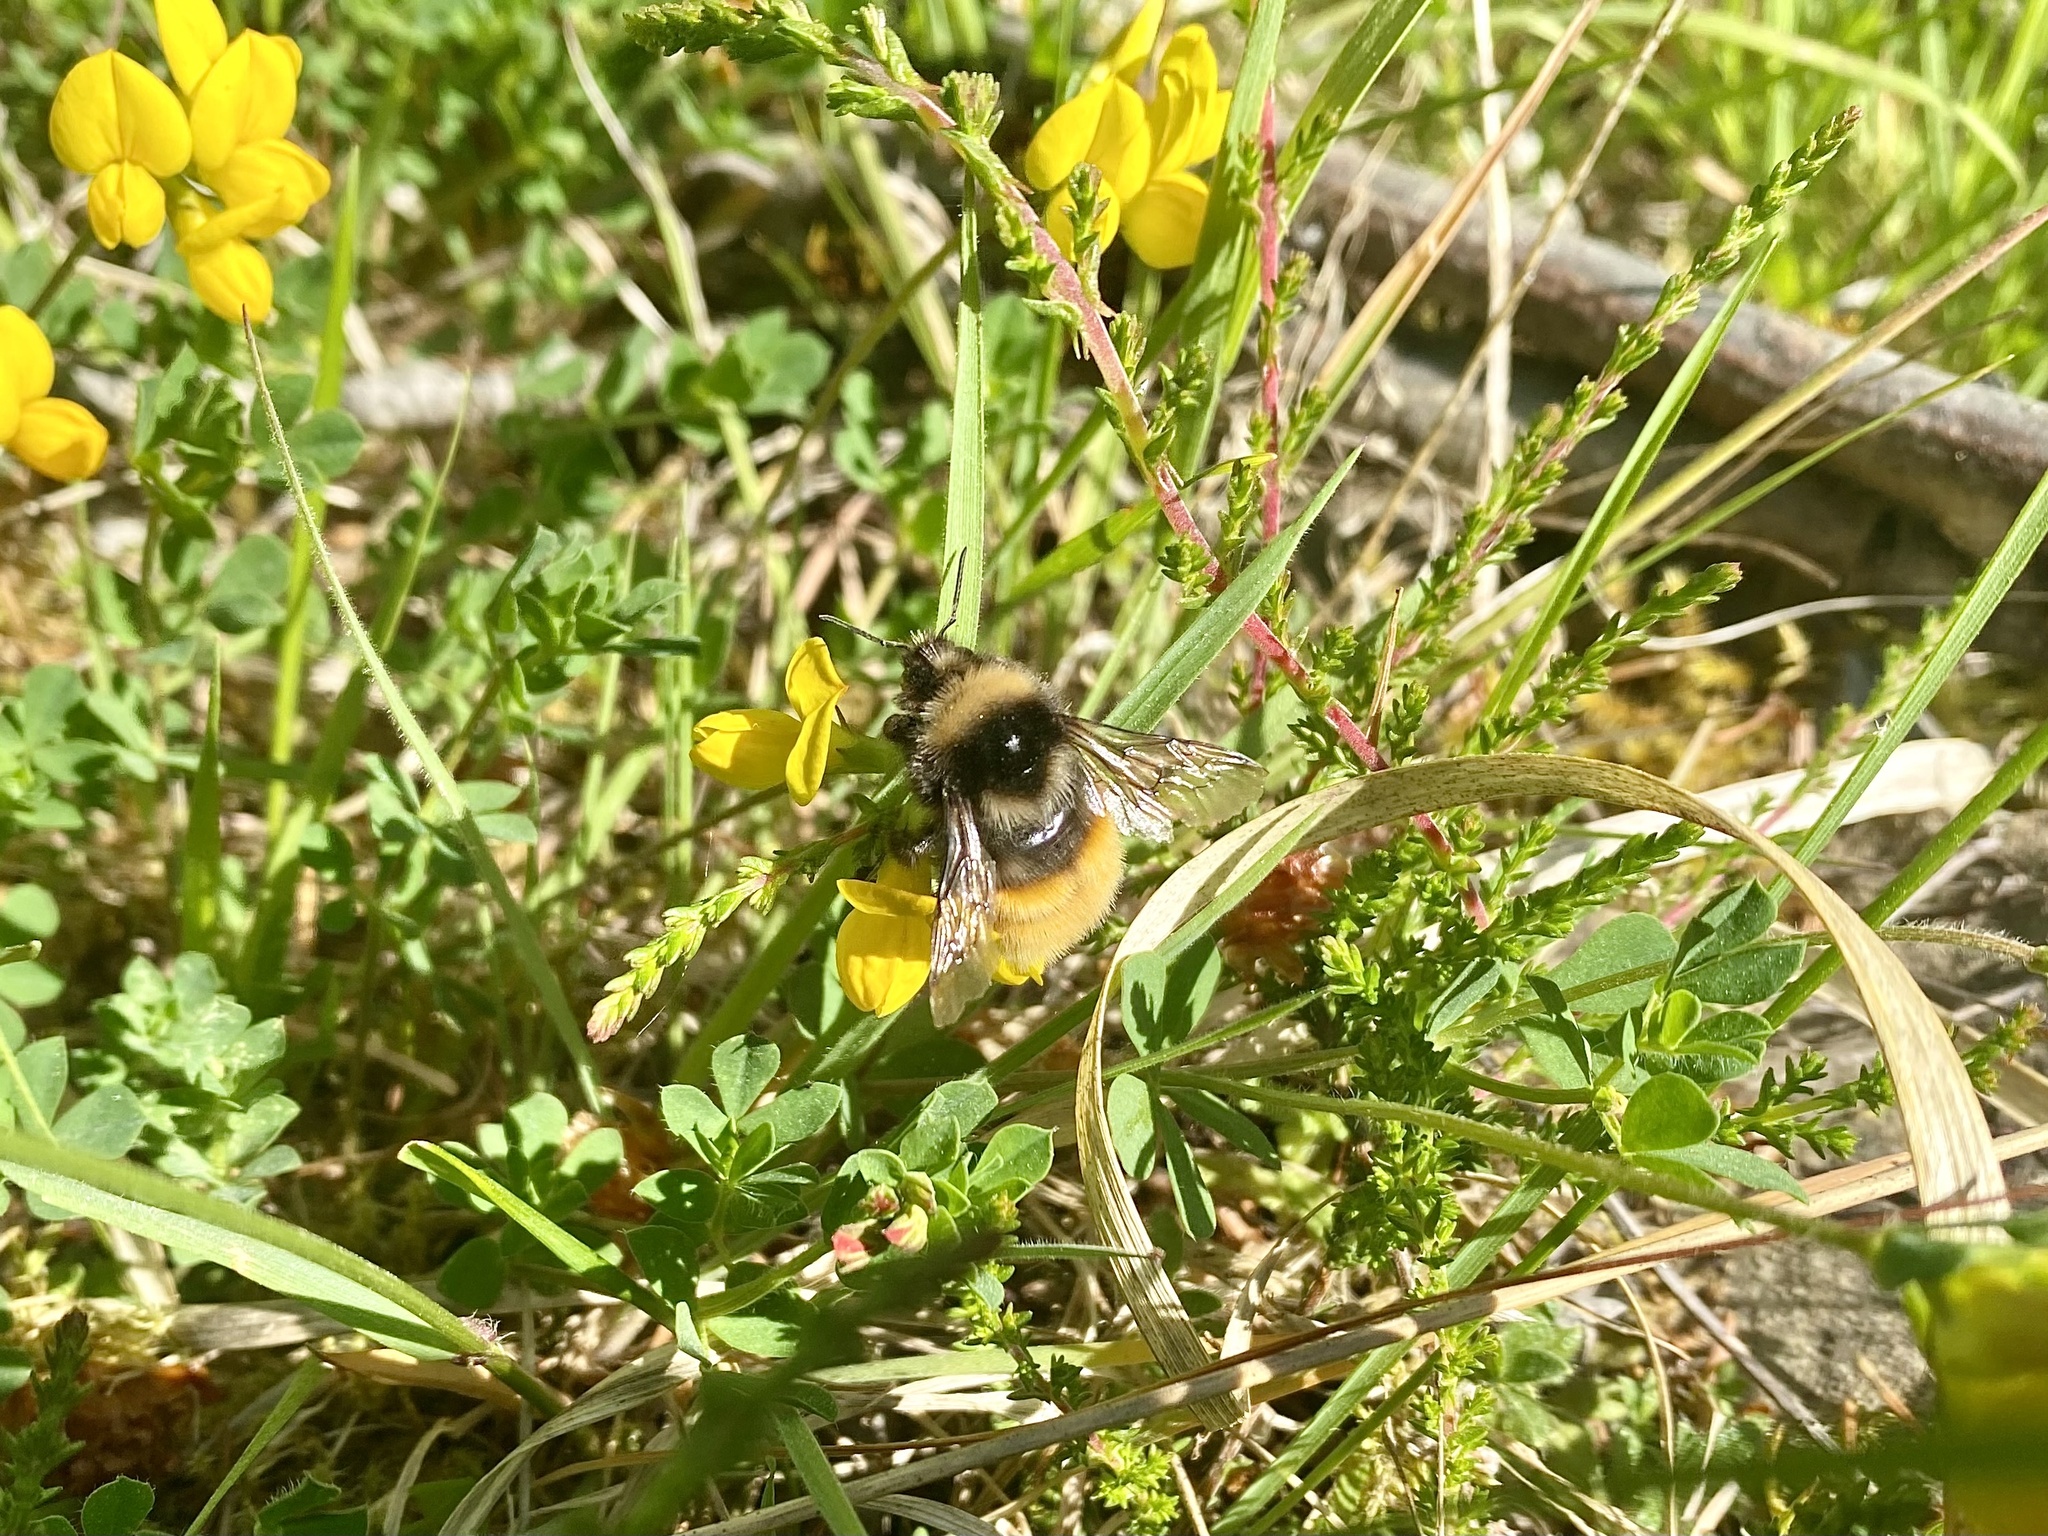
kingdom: Animalia
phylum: Arthropoda
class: Insecta
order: Hymenoptera
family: Apidae
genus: Bombus
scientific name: Bombus monticola
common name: Bilberry humble-bee
